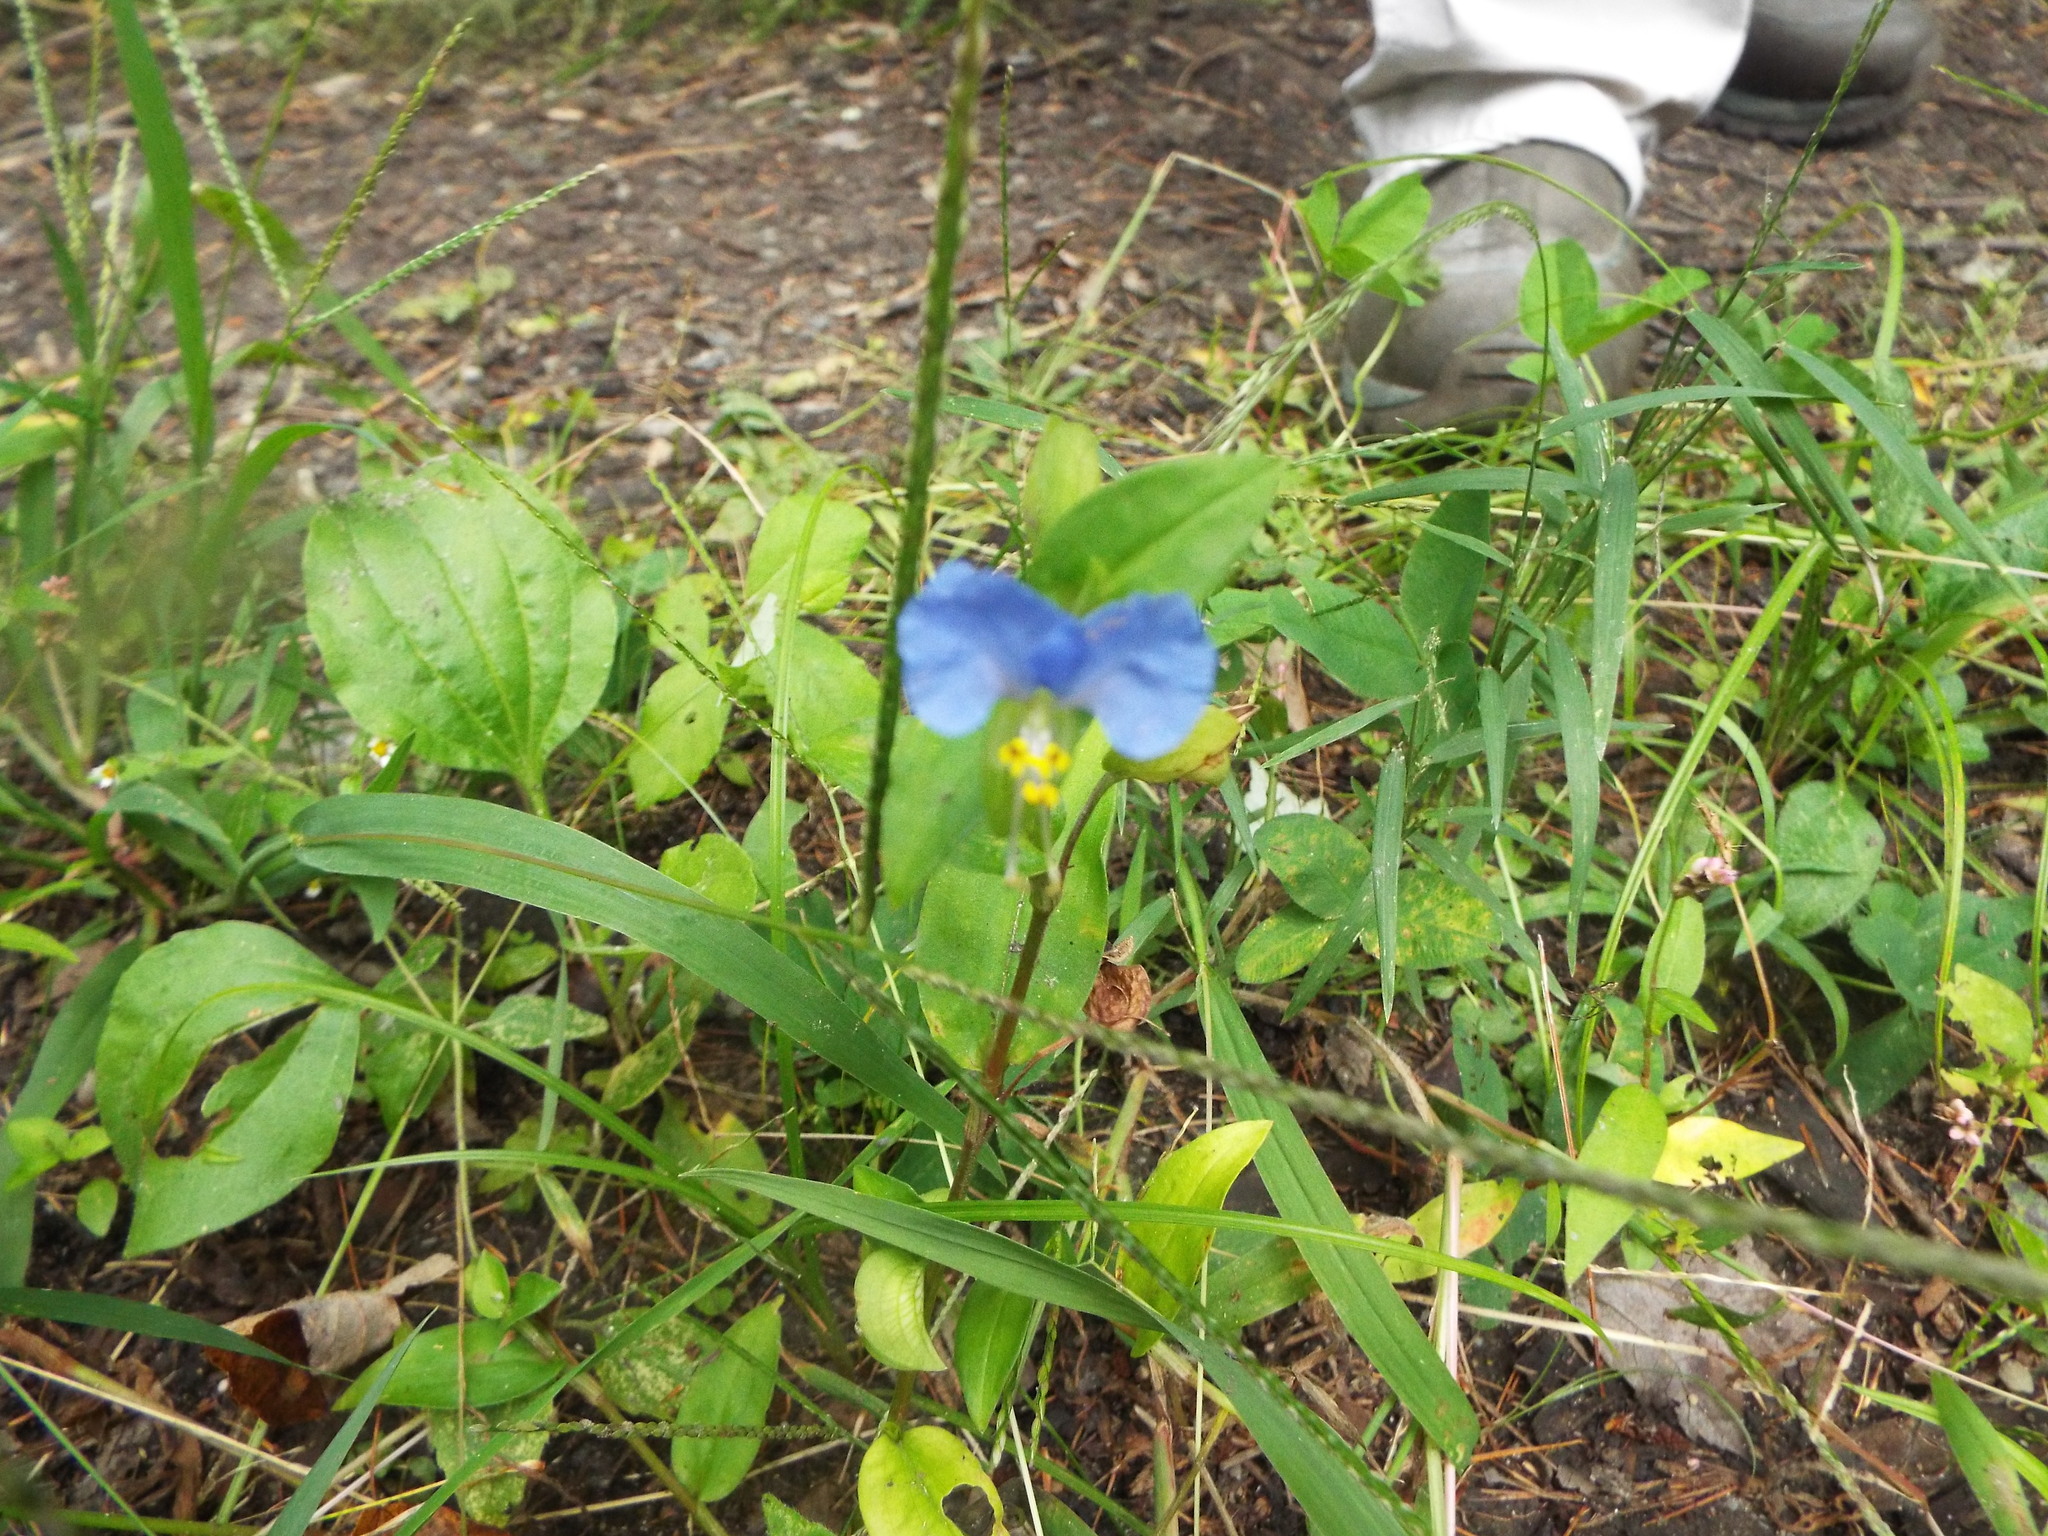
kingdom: Plantae
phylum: Tracheophyta
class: Liliopsida
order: Commelinales
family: Commelinaceae
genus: Commelina
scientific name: Commelina communis
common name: Asiatic dayflower
